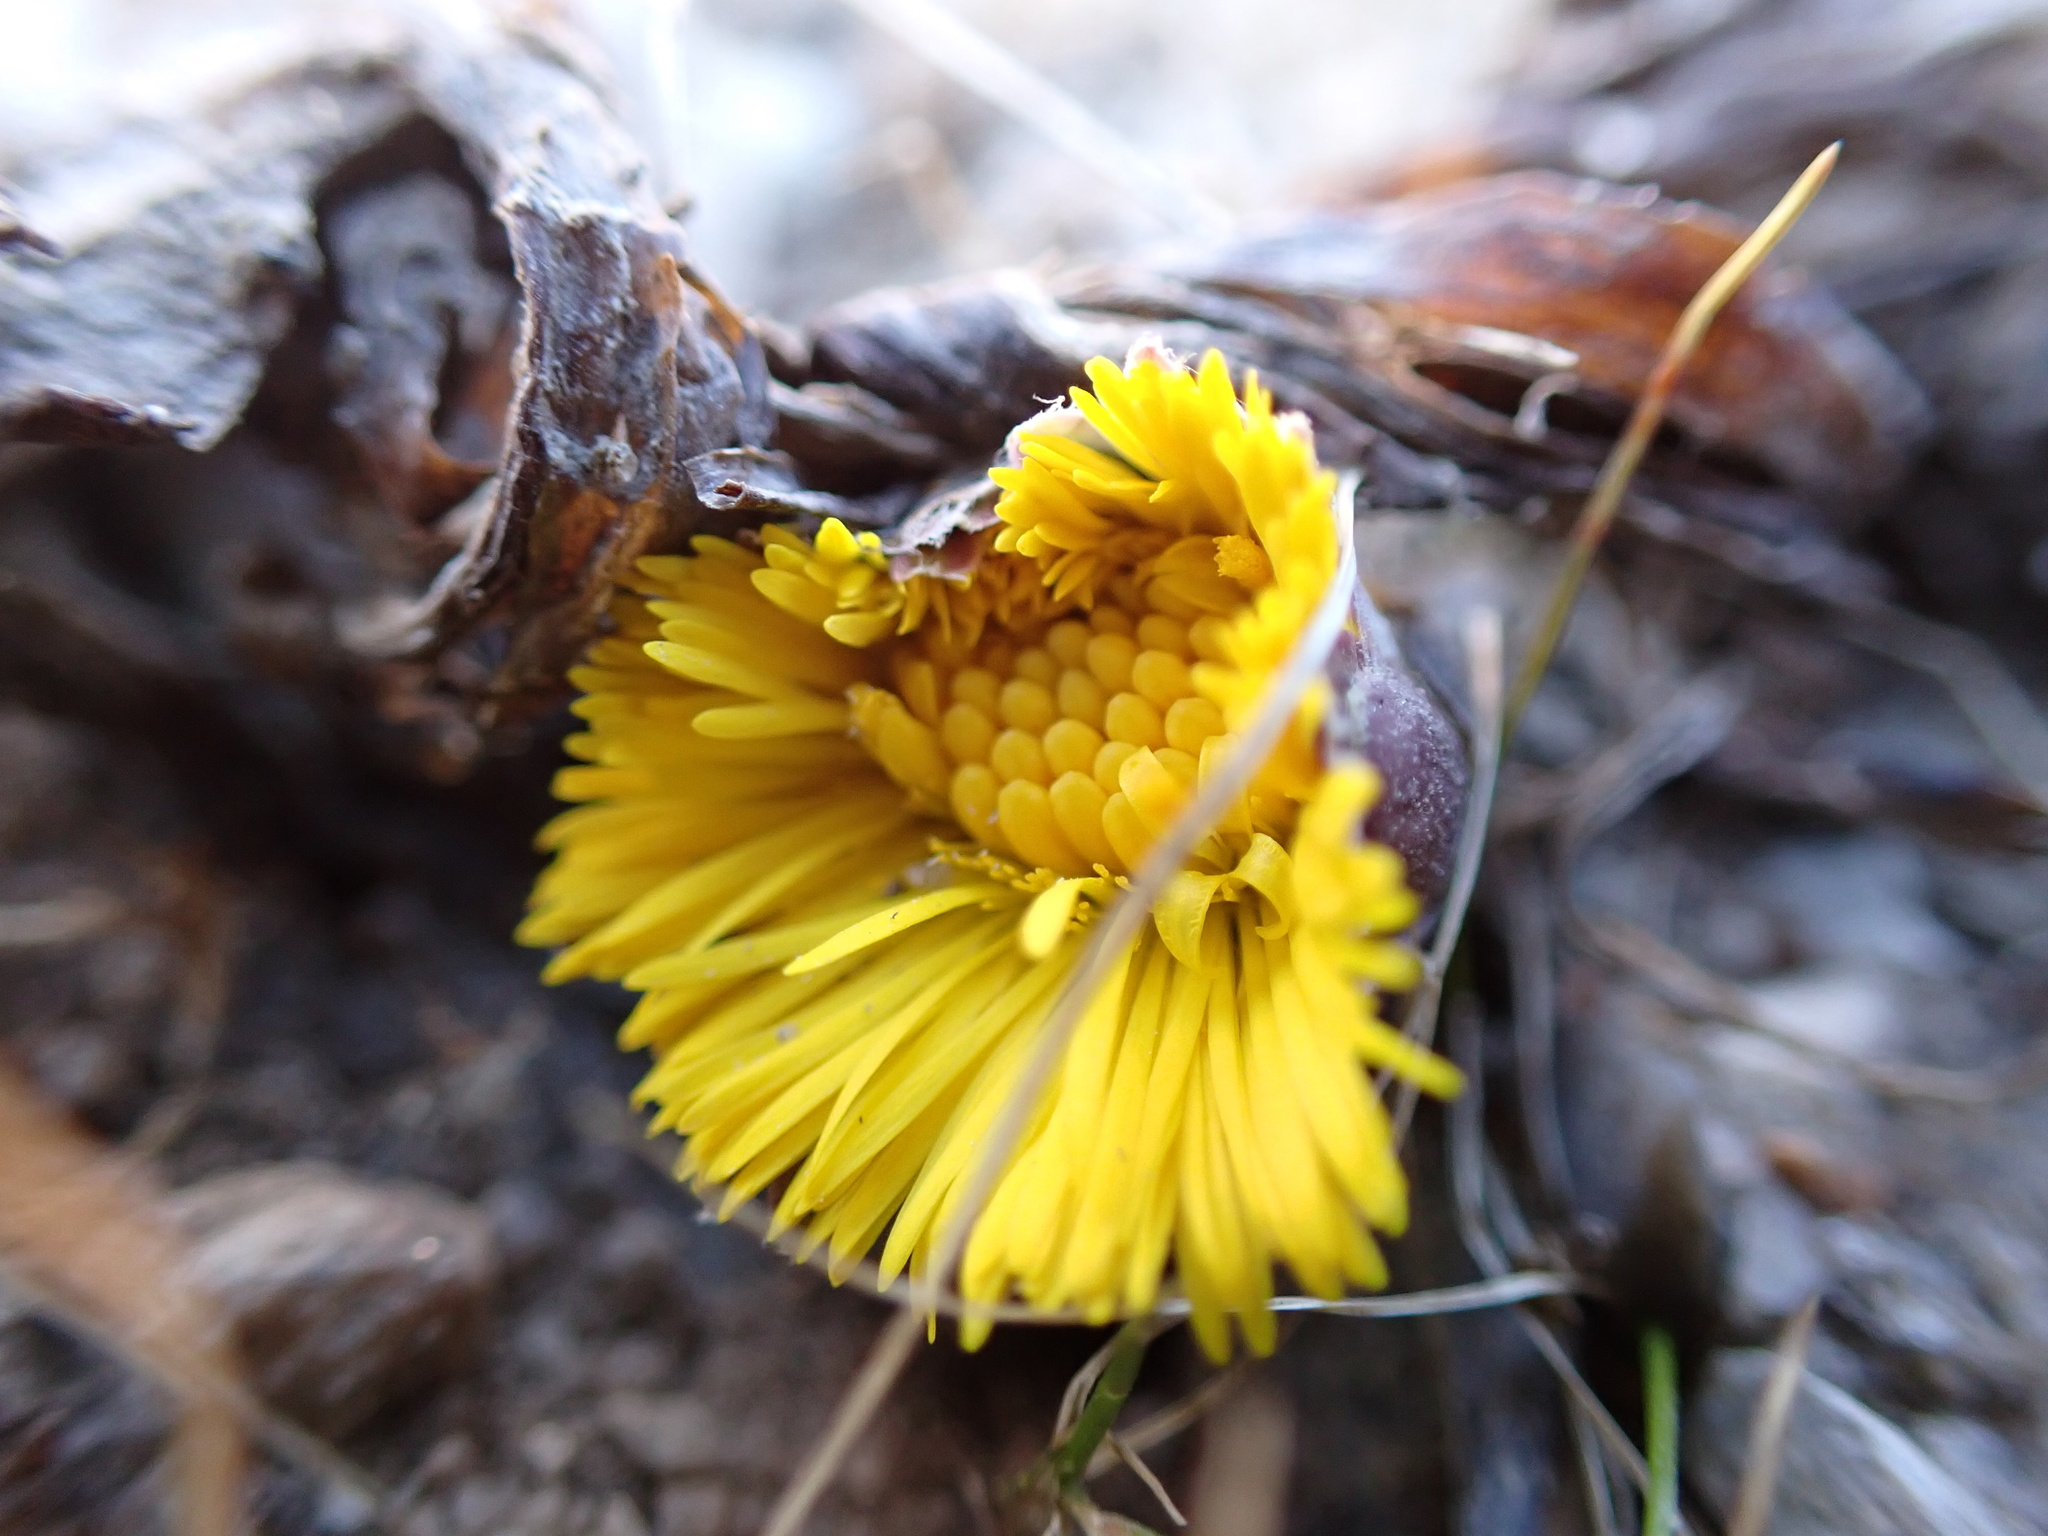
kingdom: Plantae
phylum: Tracheophyta
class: Magnoliopsida
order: Asterales
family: Asteraceae
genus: Tussilago
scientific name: Tussilago farfara
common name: Coltsfoot
